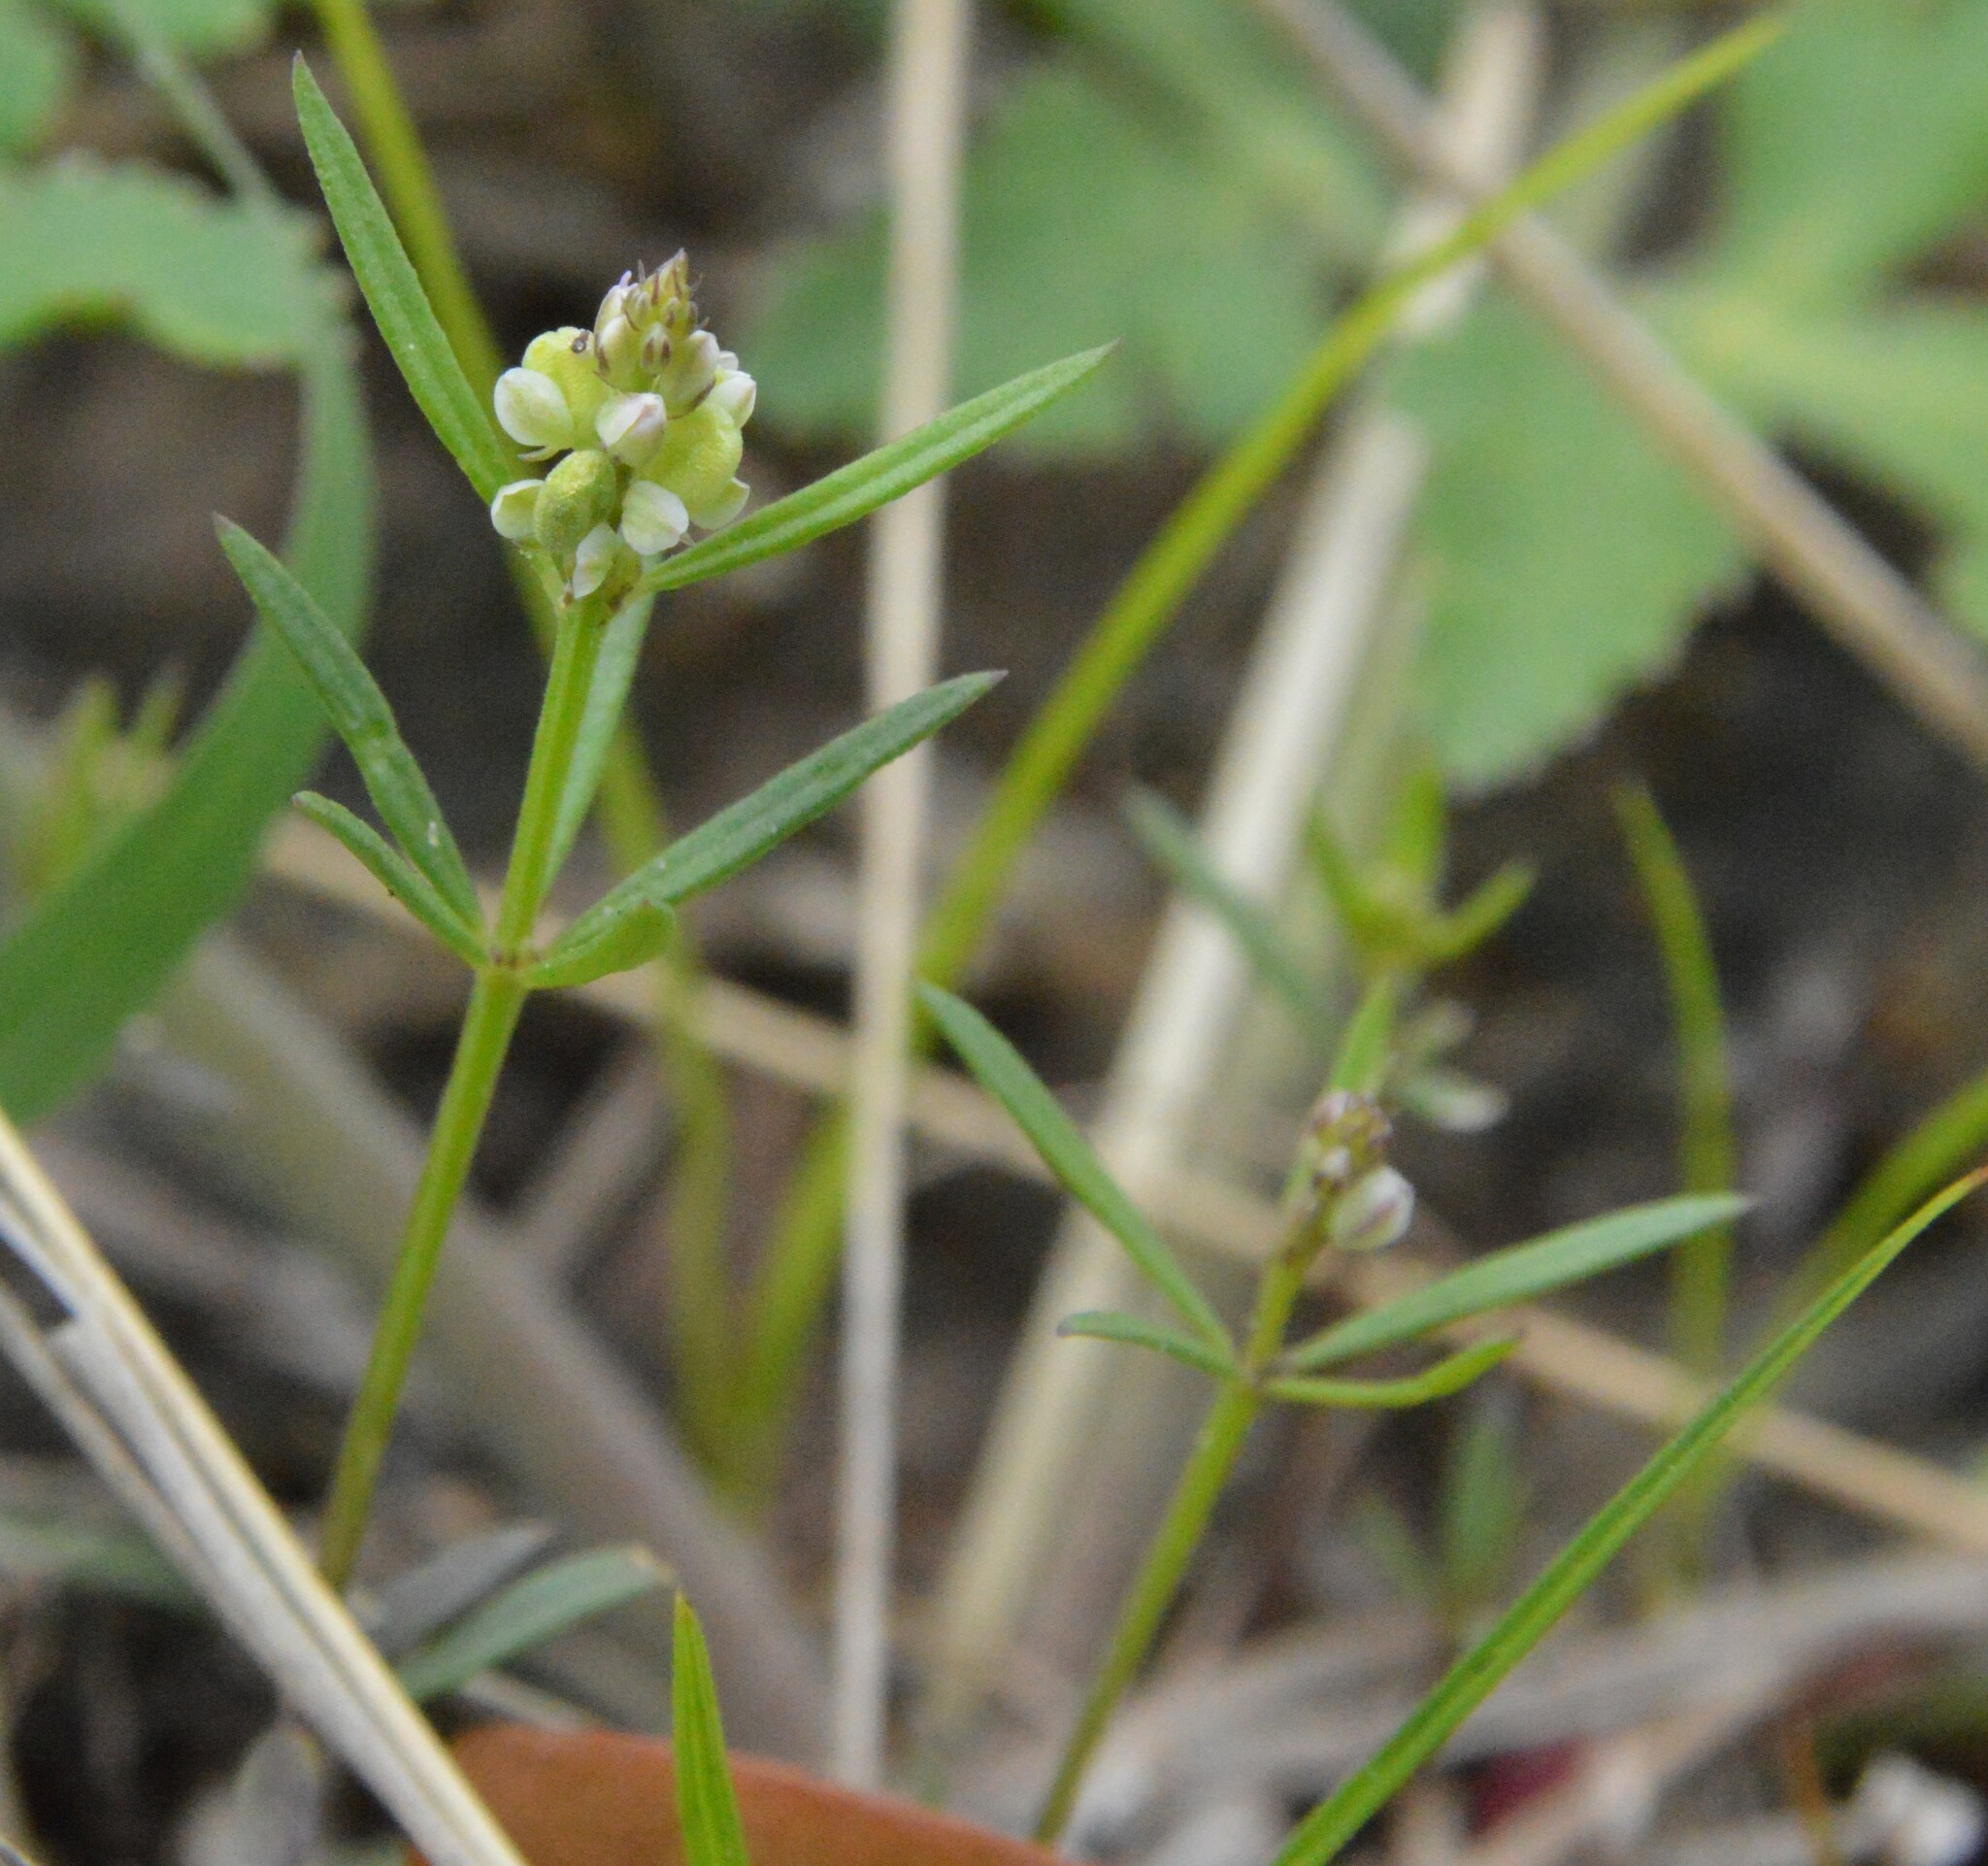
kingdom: Plantae
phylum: Tracheophyta
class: Magnoliopsida
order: Fabales
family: Polygalaceae
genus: Polygala
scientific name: Polygala verticillata
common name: Whorl milkwort
